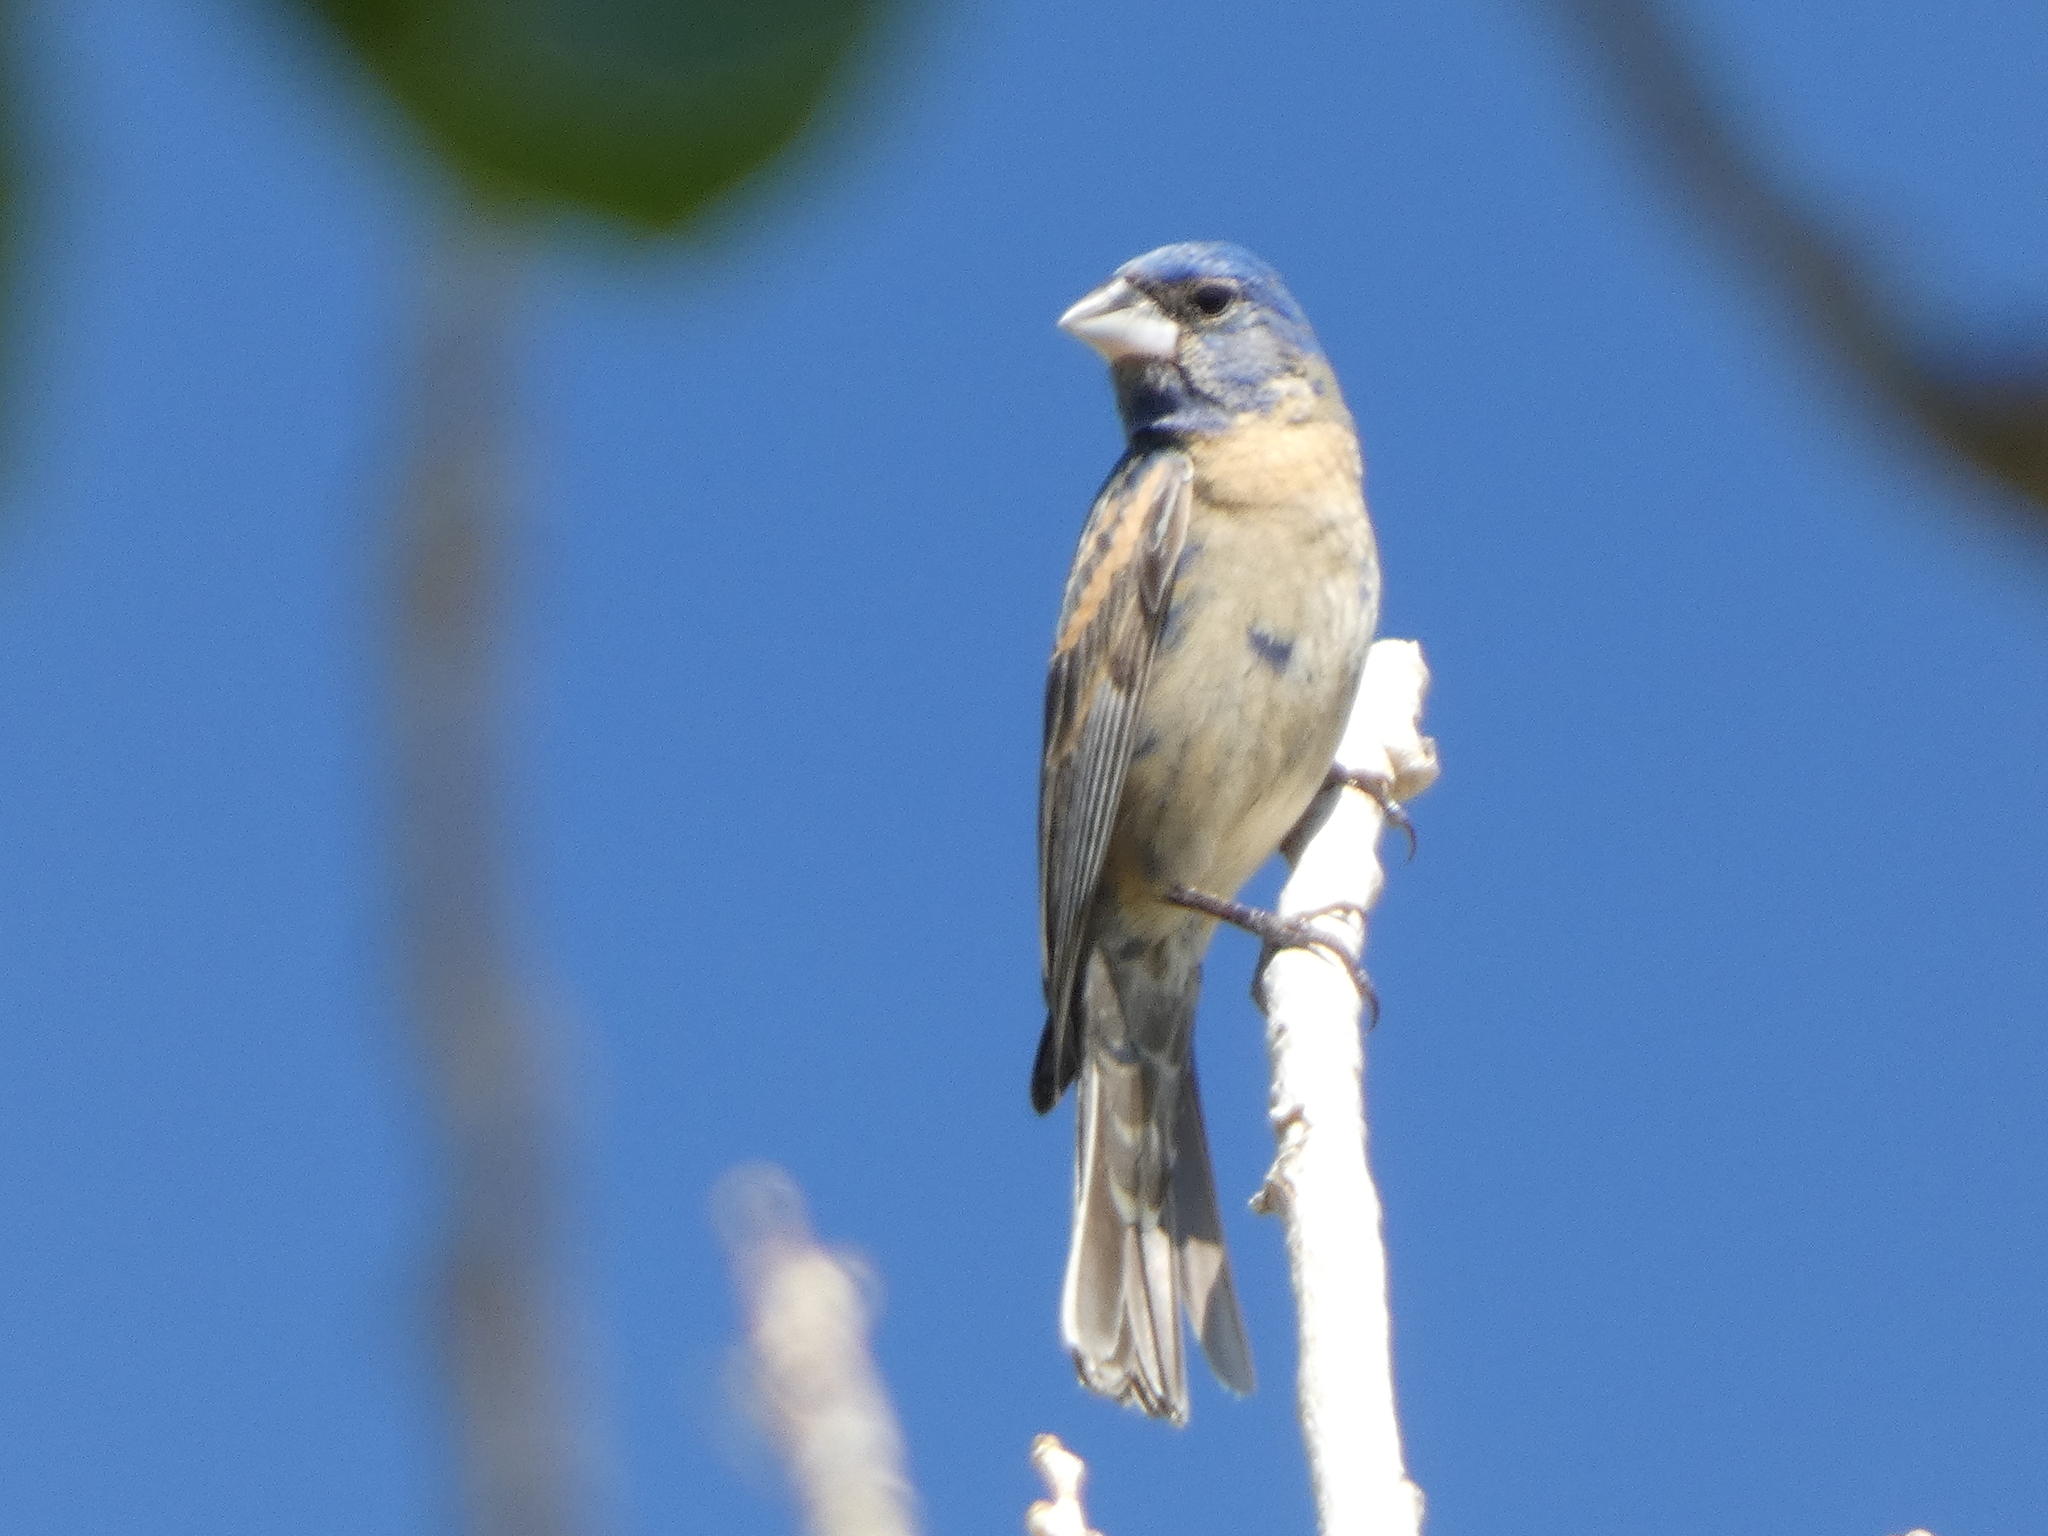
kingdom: Animalia
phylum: Chordata
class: Aves
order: Passeriformes
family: Cardinalidae
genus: Passerina
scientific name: Passerina caerulea
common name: Blue grosbeak
